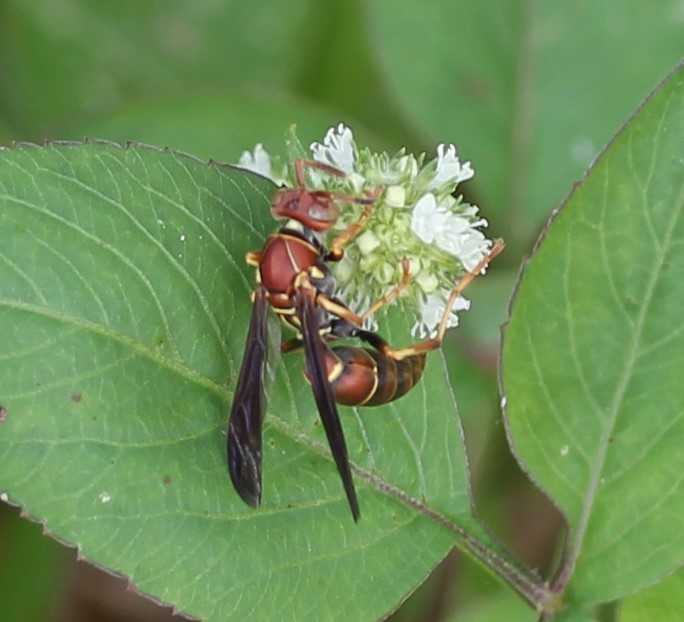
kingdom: Animalia
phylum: Arthropoda
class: Insecta
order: Hymenoptera
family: Eumenidae
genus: Polistes
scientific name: Polistes dorsalis
